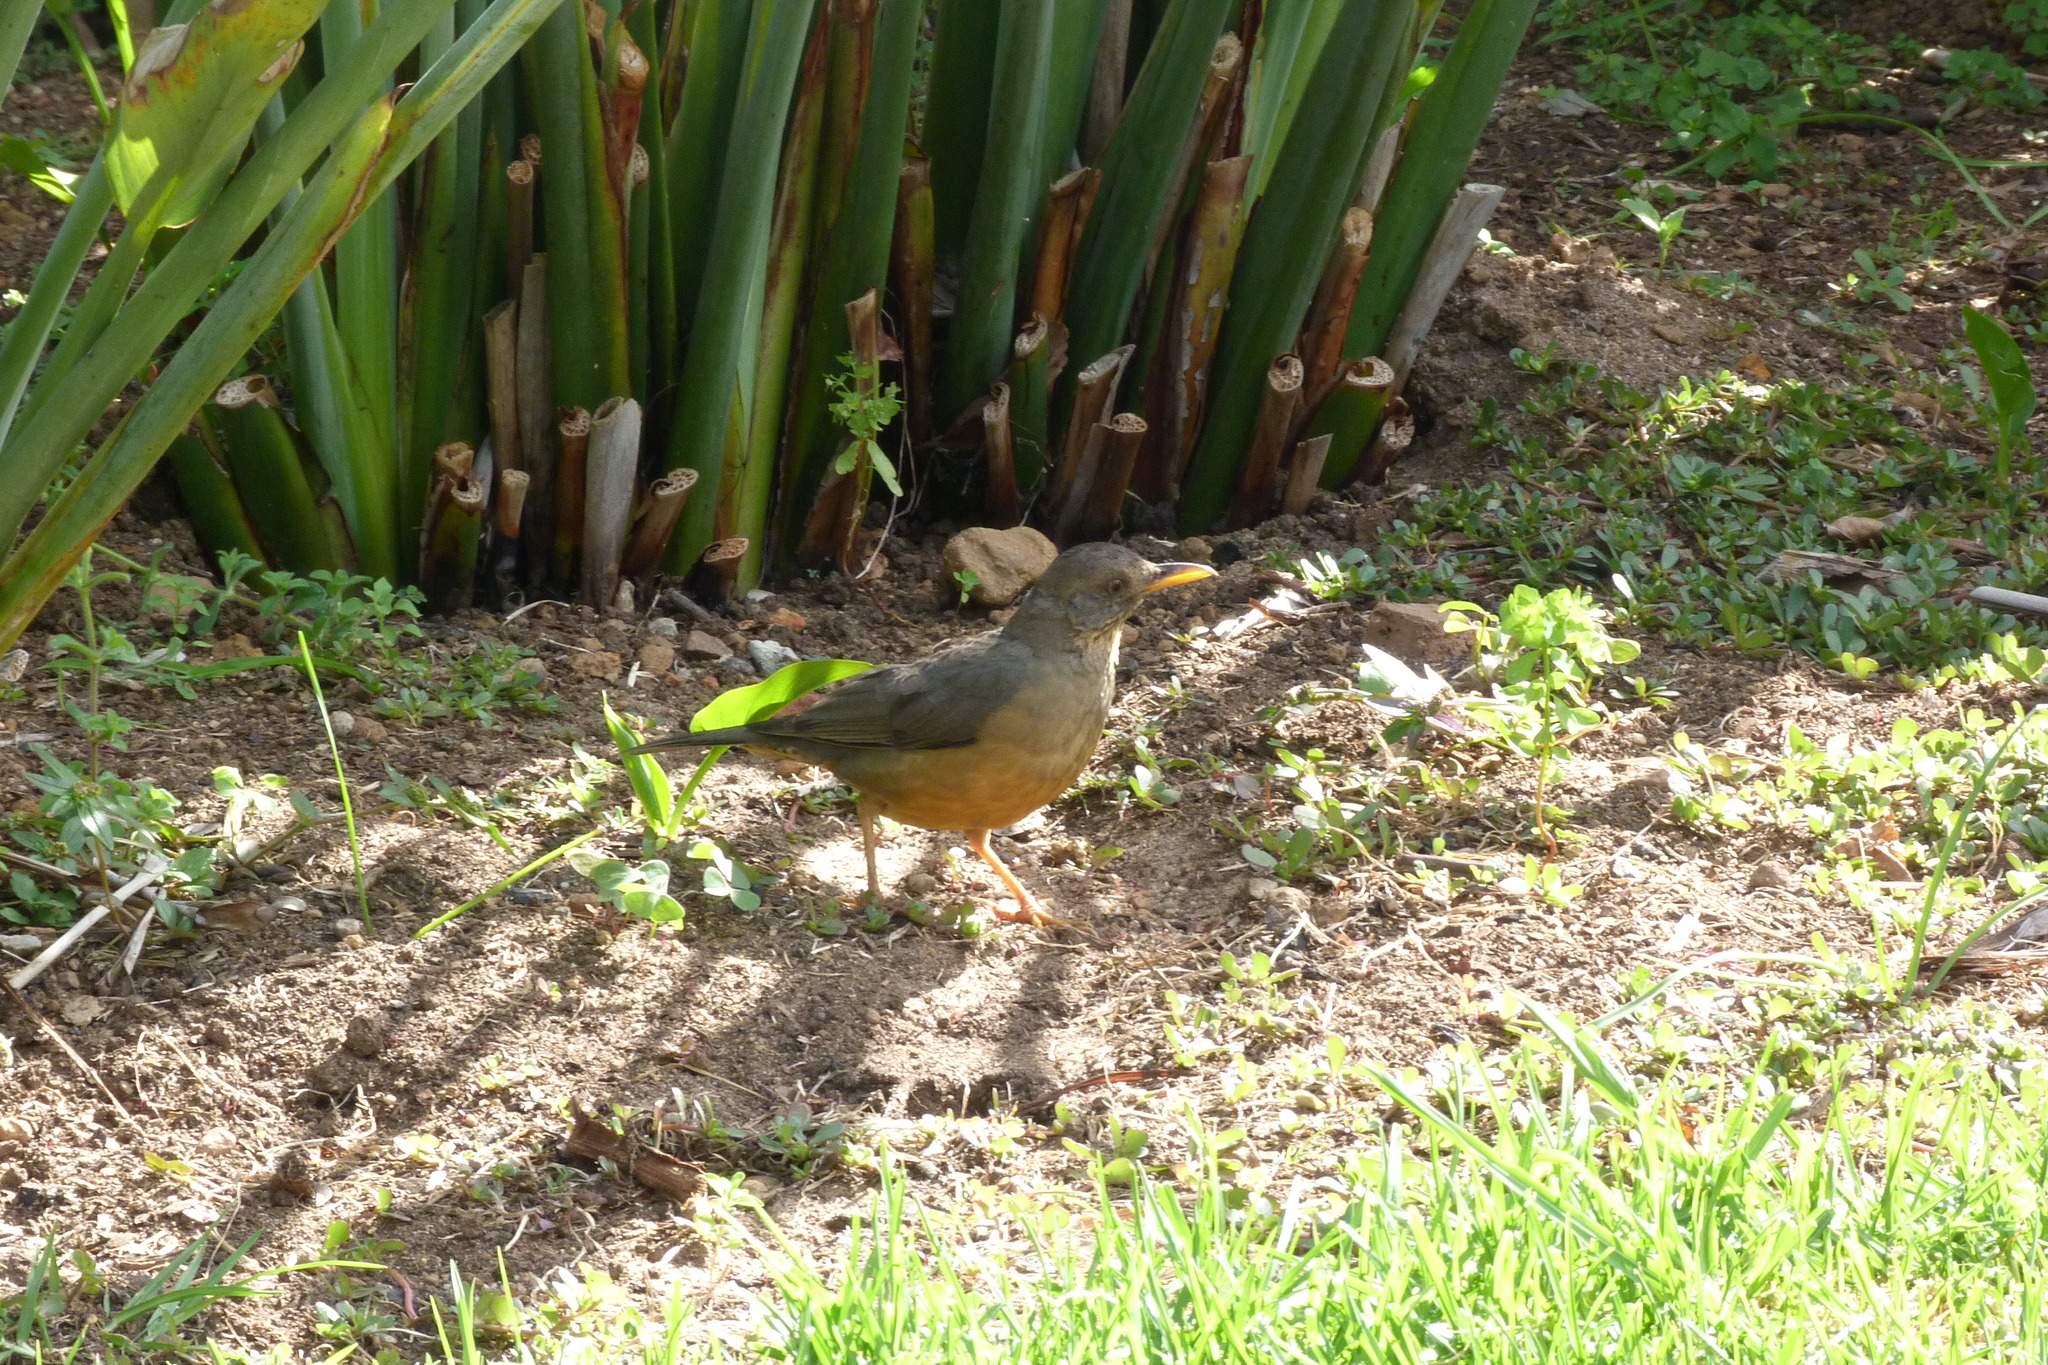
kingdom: Animalia
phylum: Chordata
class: Aves
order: Passeriformes
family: Turdidae
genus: Turdus
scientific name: Turdus olivaceus
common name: Olive thrush
